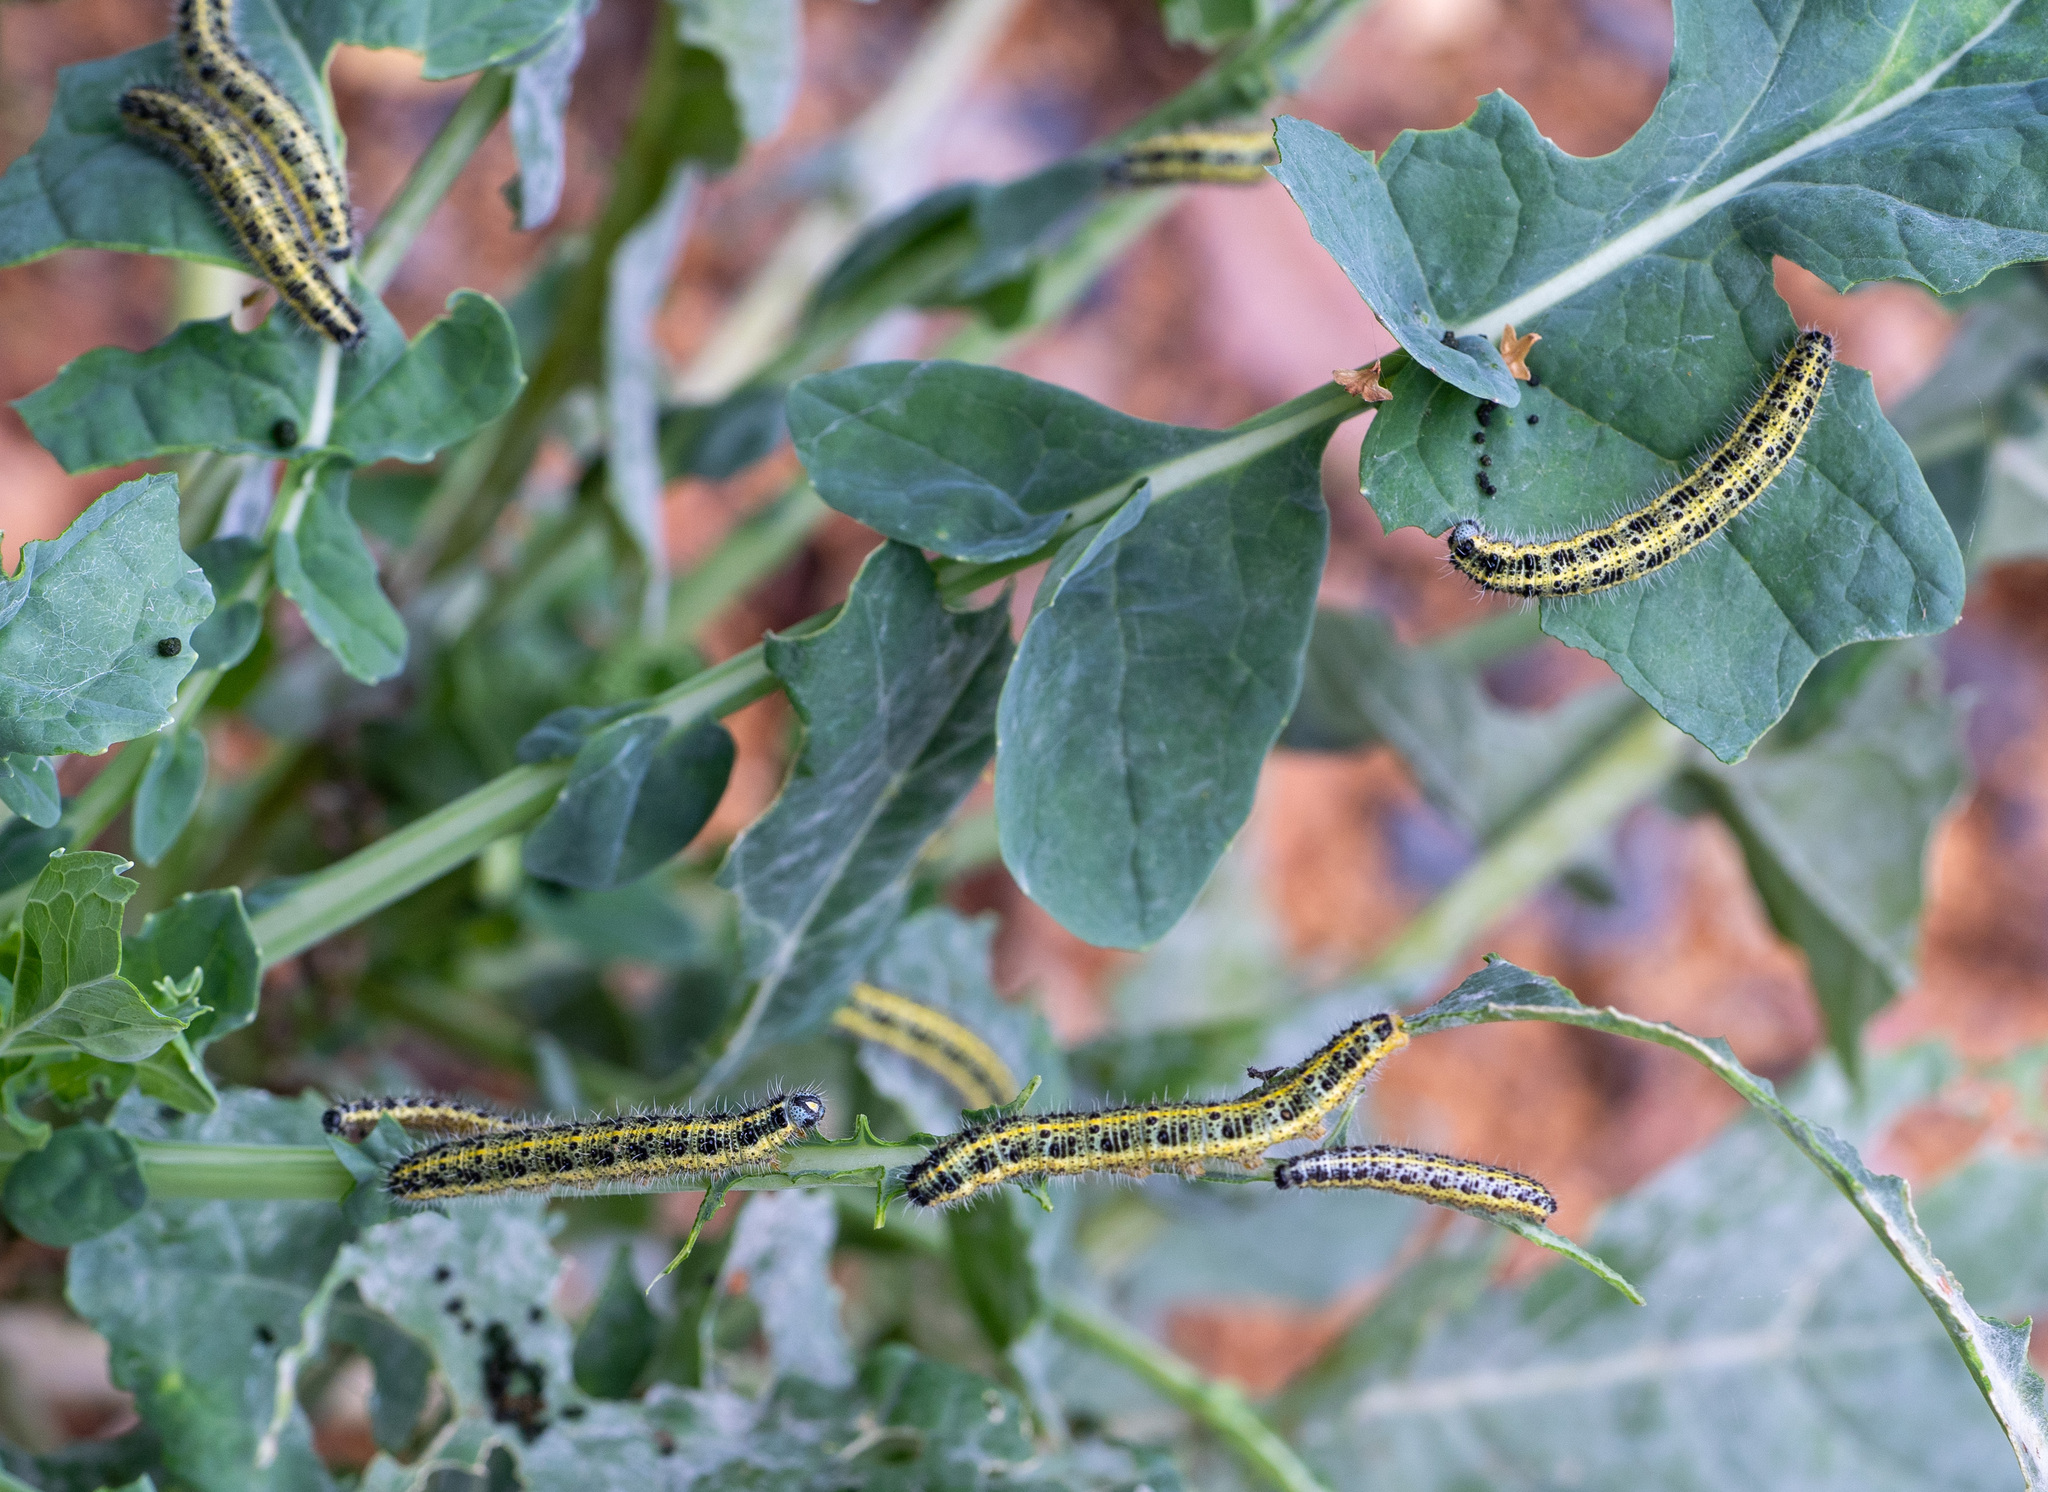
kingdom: Animalia
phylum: Arthropoda
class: Insecta
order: Lepidoptera
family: Pieridae
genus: Pieris
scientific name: Pieris brassicae
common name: Large white
